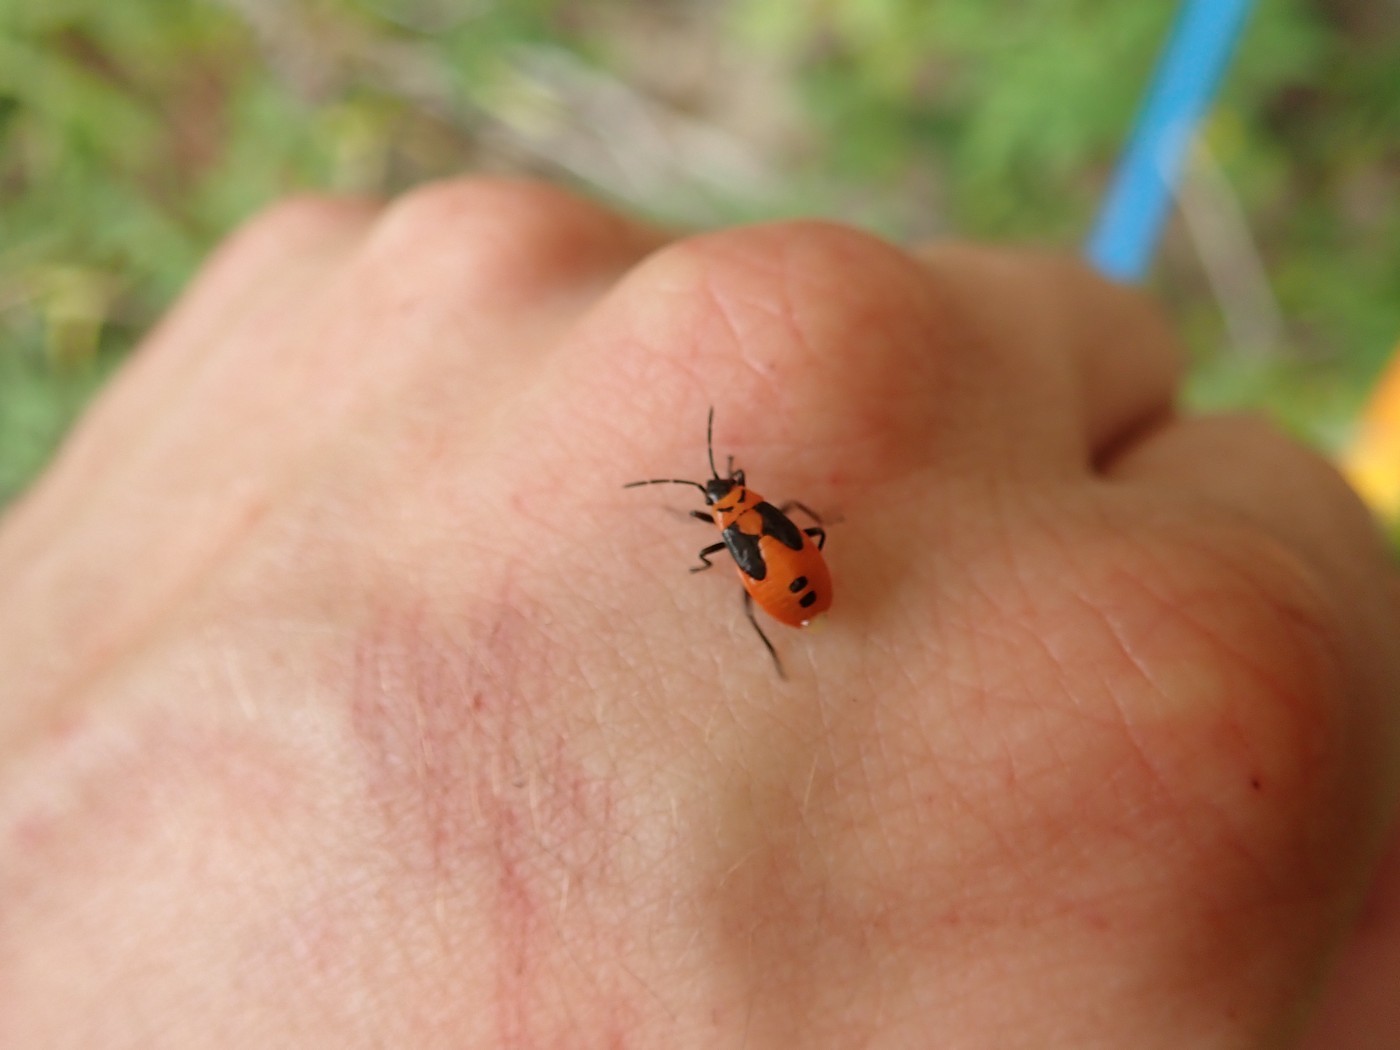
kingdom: Animalia
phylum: Arthropoda
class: Insecta
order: Hemiptera
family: Lygaeidae
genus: Lygaeus
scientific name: Lygaeus turcicus
